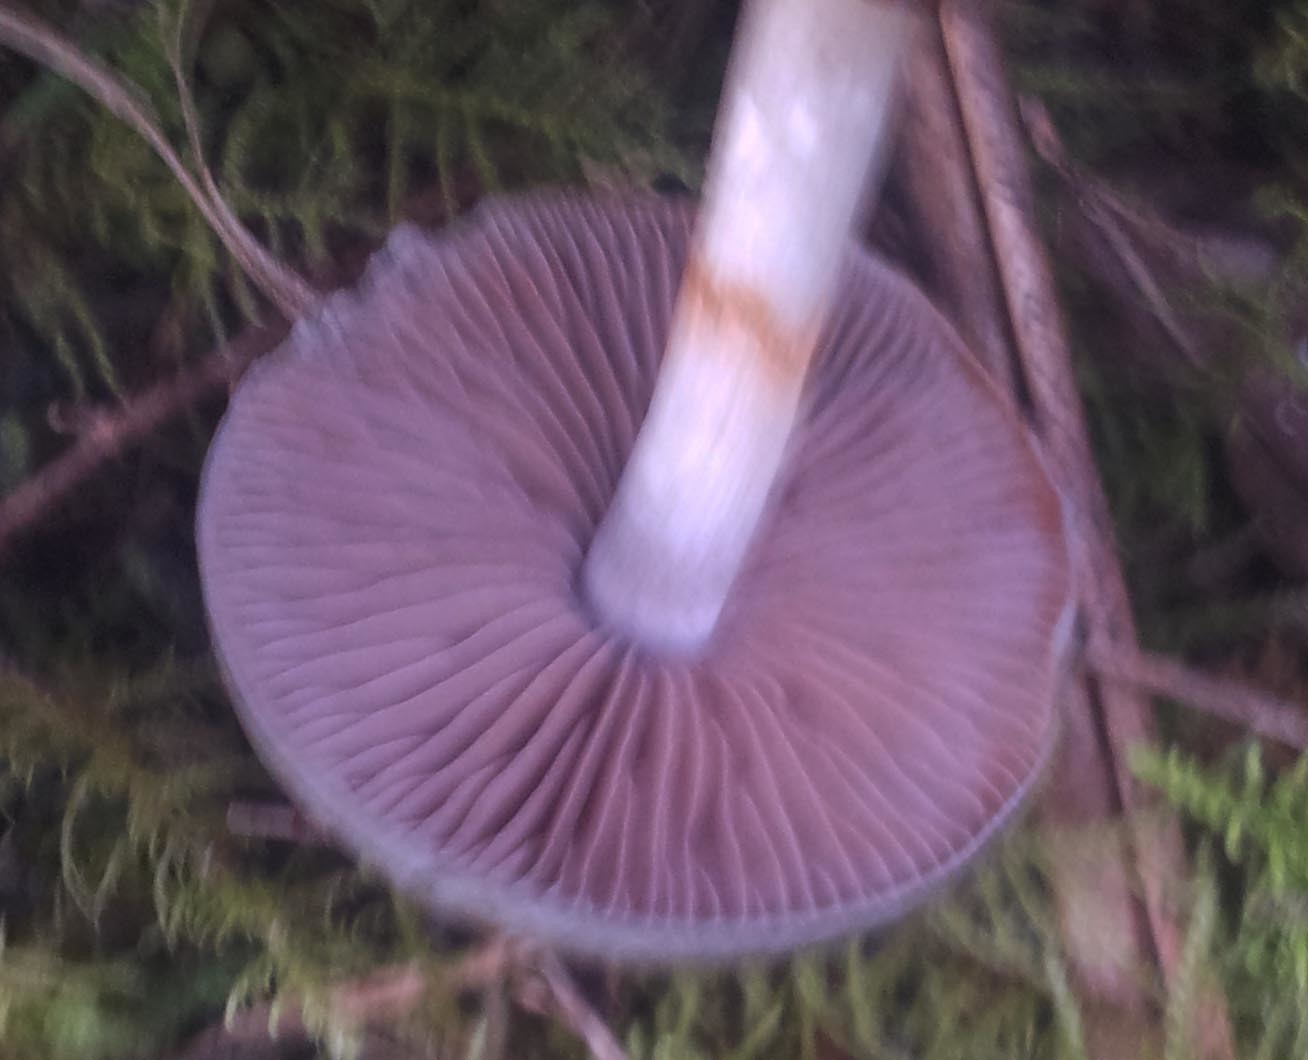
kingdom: Fungi
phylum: Basidiomycota
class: Agaricomycetes
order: Agaricales
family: Cortinariaceae
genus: Cortinarius
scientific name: Cortinarius rotundisporus
